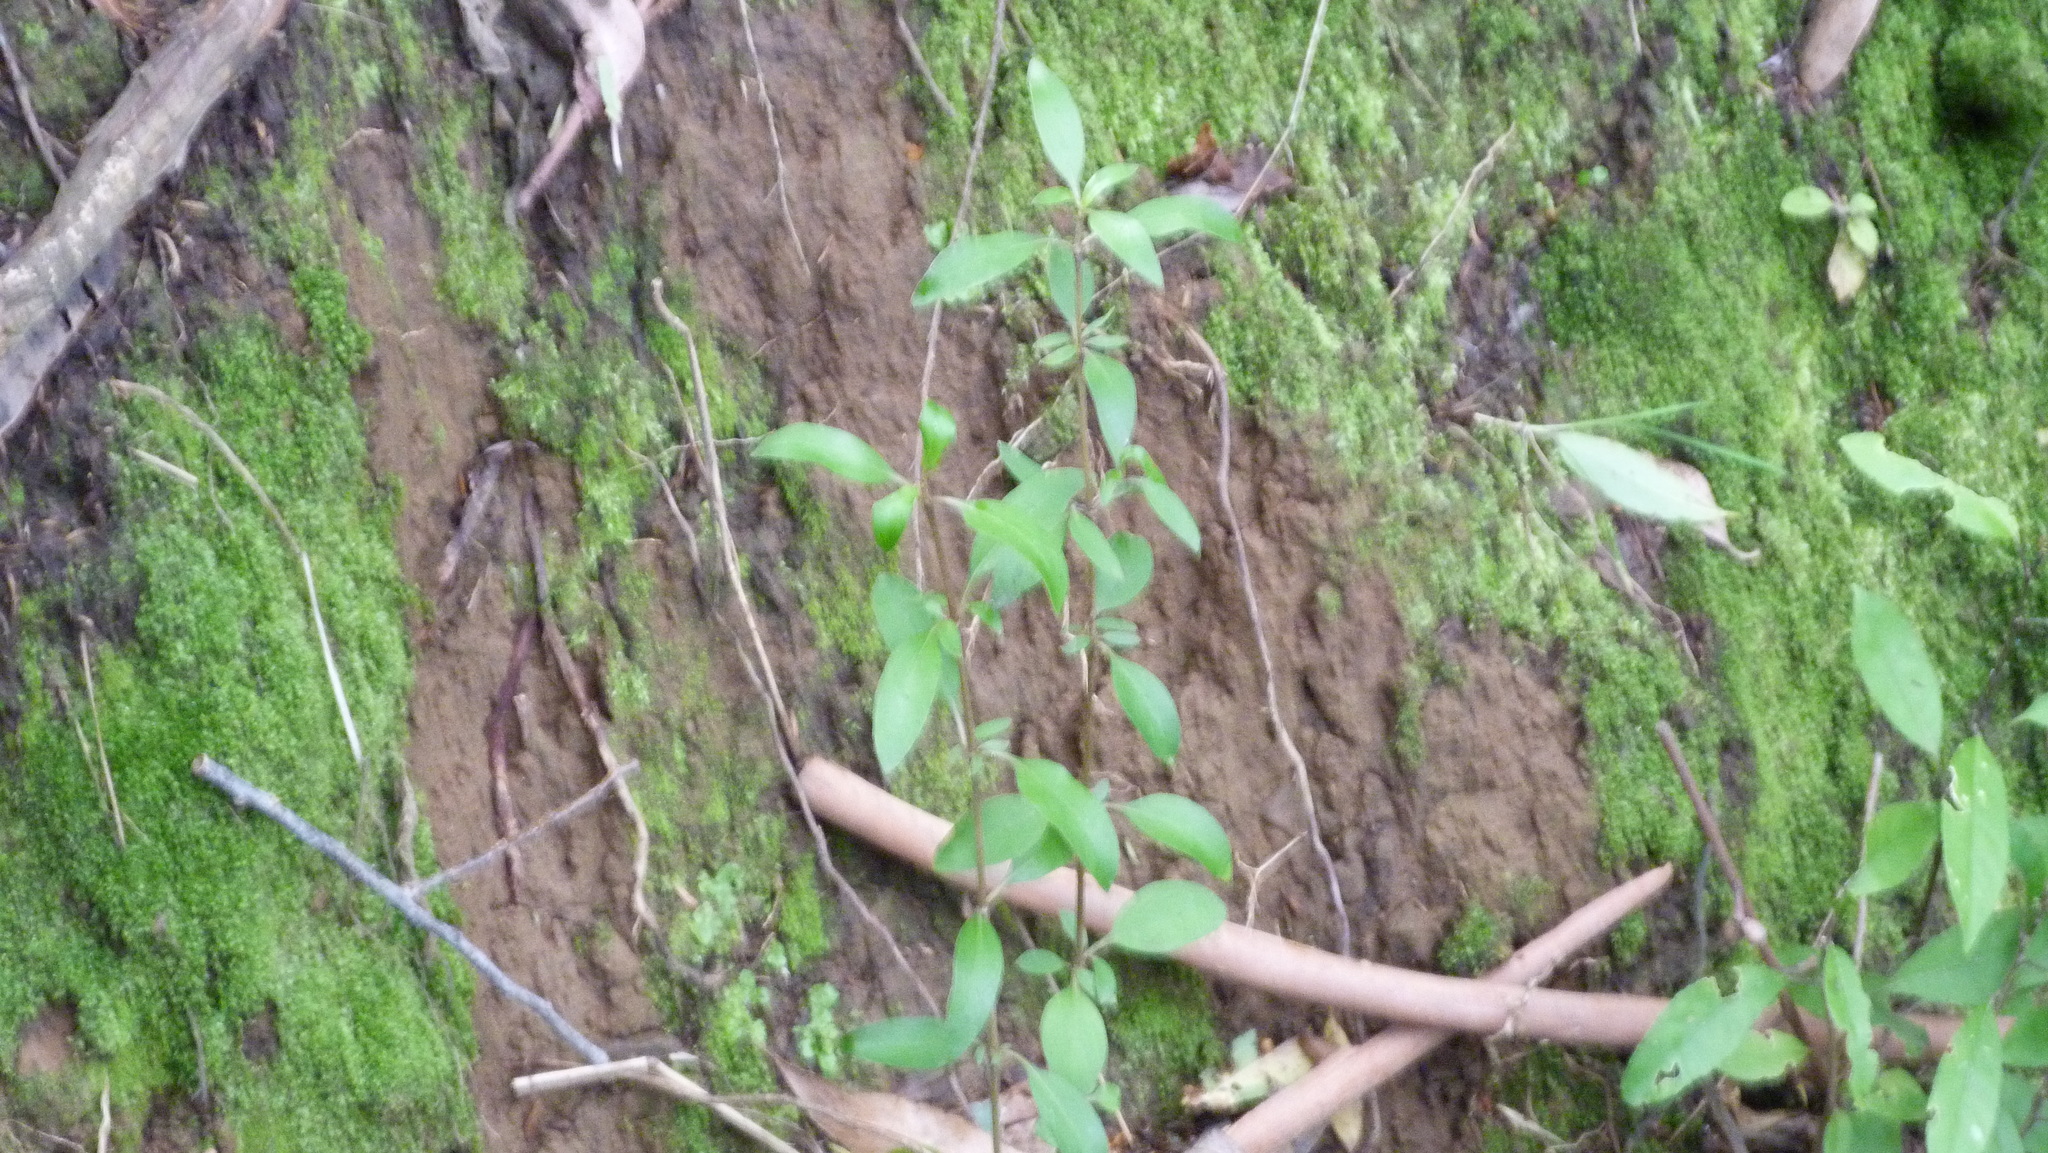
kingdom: Plantae
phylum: Tracheophyta
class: Magnoliopsida
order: Gentianales
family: Rubiaceae
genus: Coprosma
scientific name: Coprosma cunninghamii
